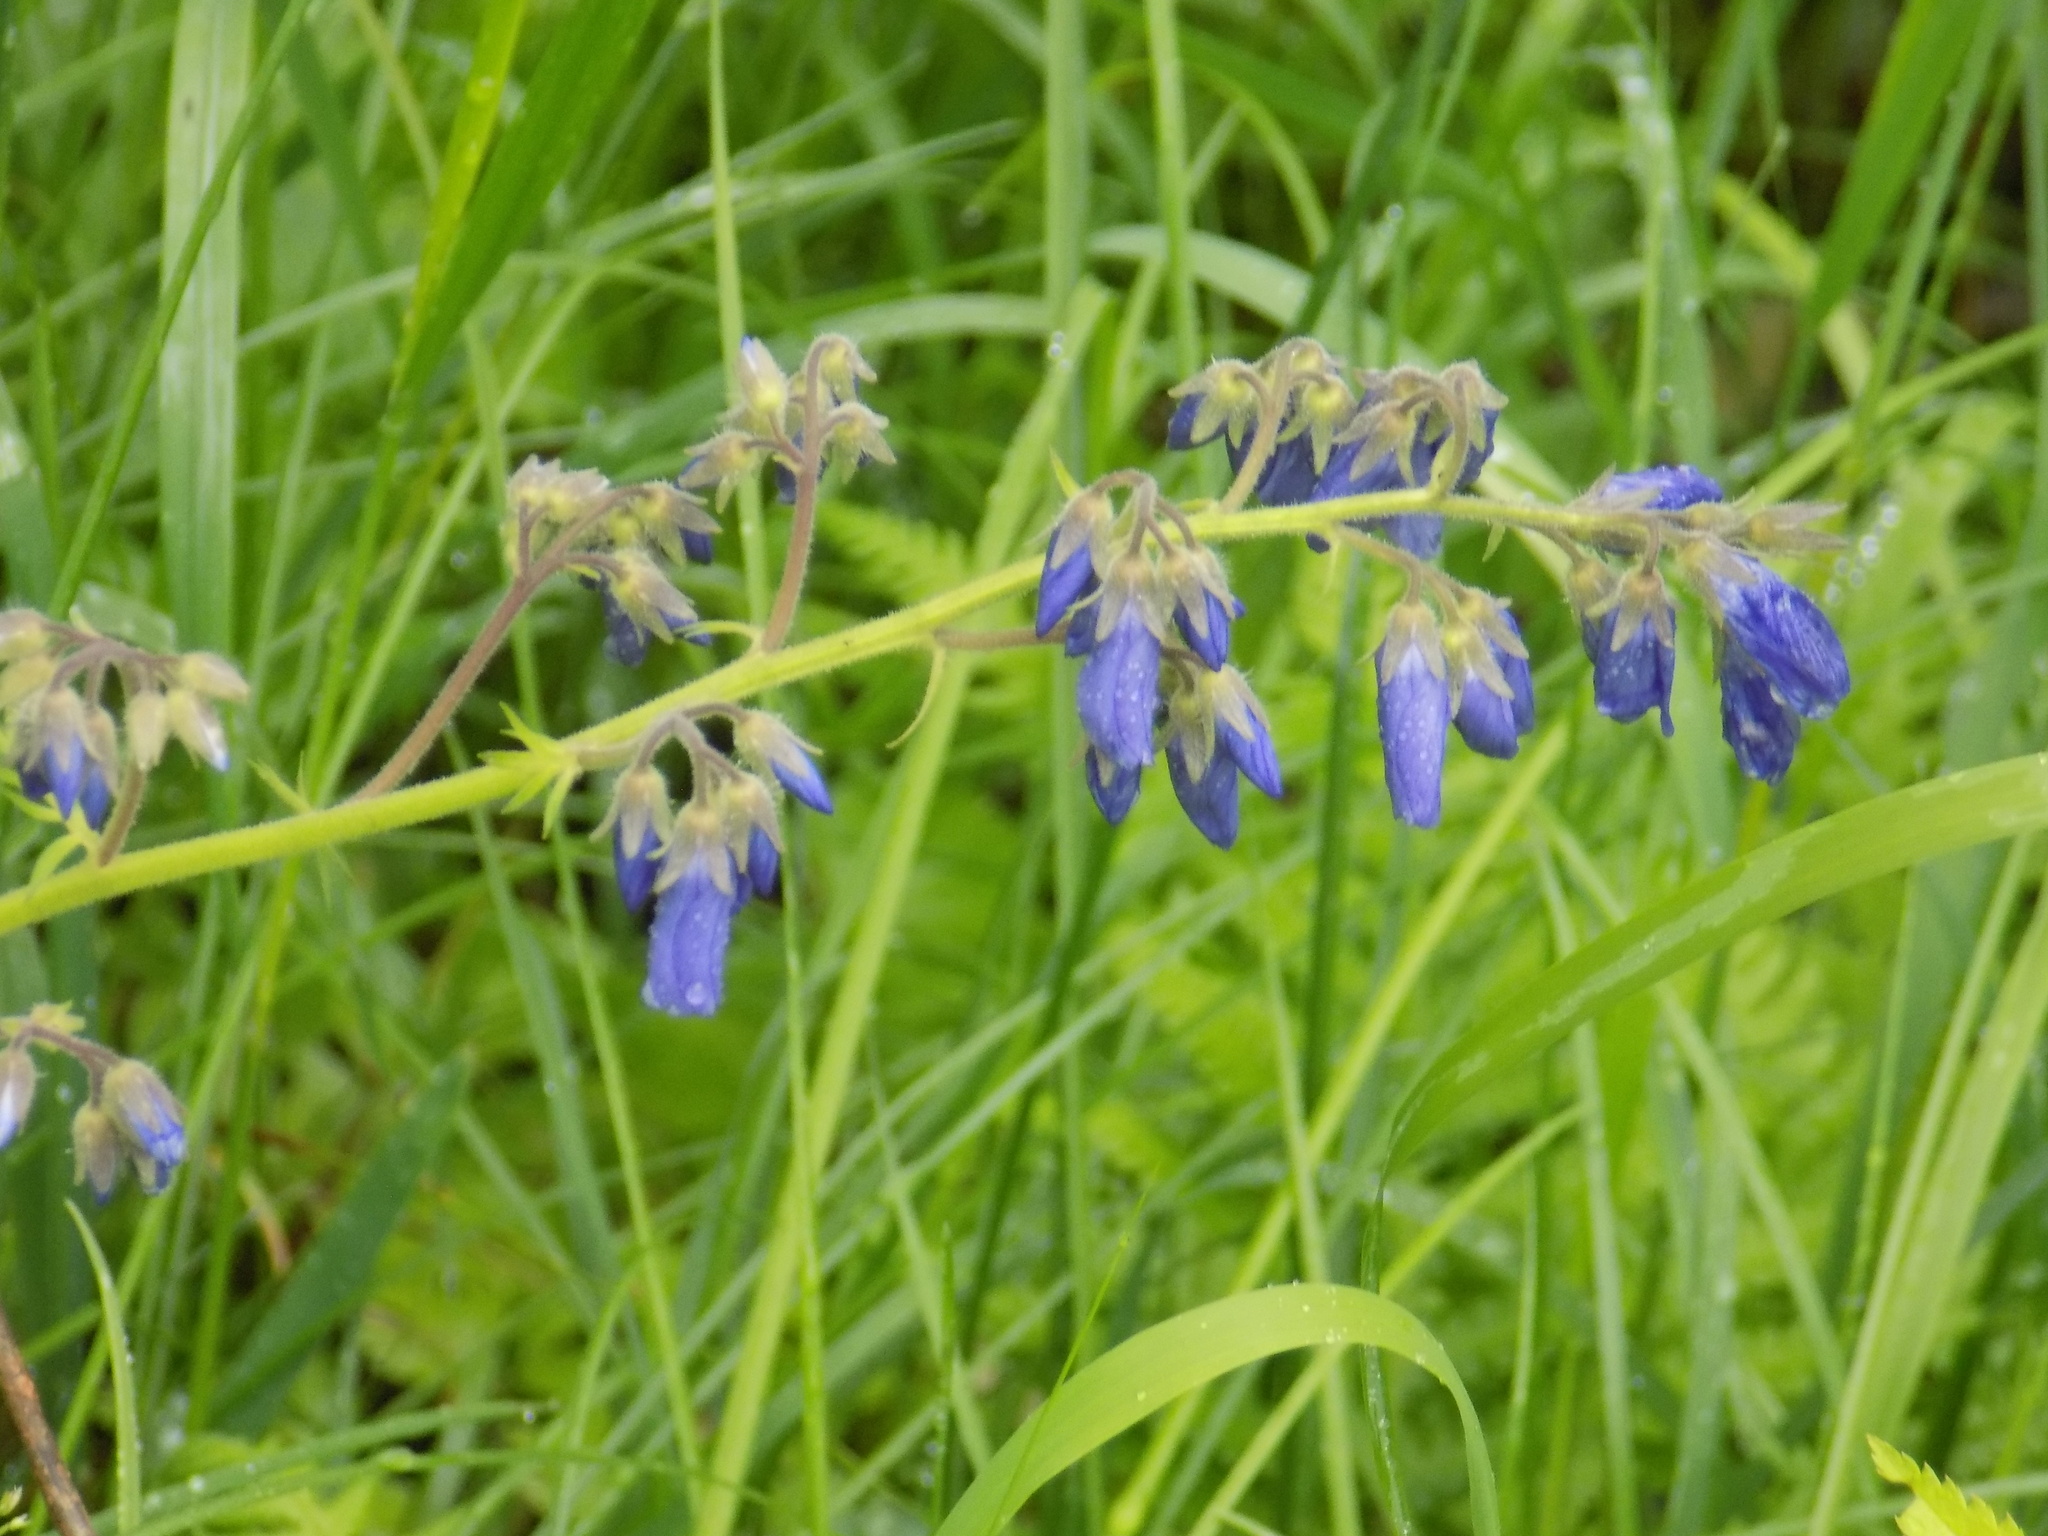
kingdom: Plantae
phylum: Tracheophyta
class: Magnoliopsida
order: Ericales
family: Polemoniaceae
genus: Polemonium
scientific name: Polemonium caeruleum
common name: Jacob's-ladder
